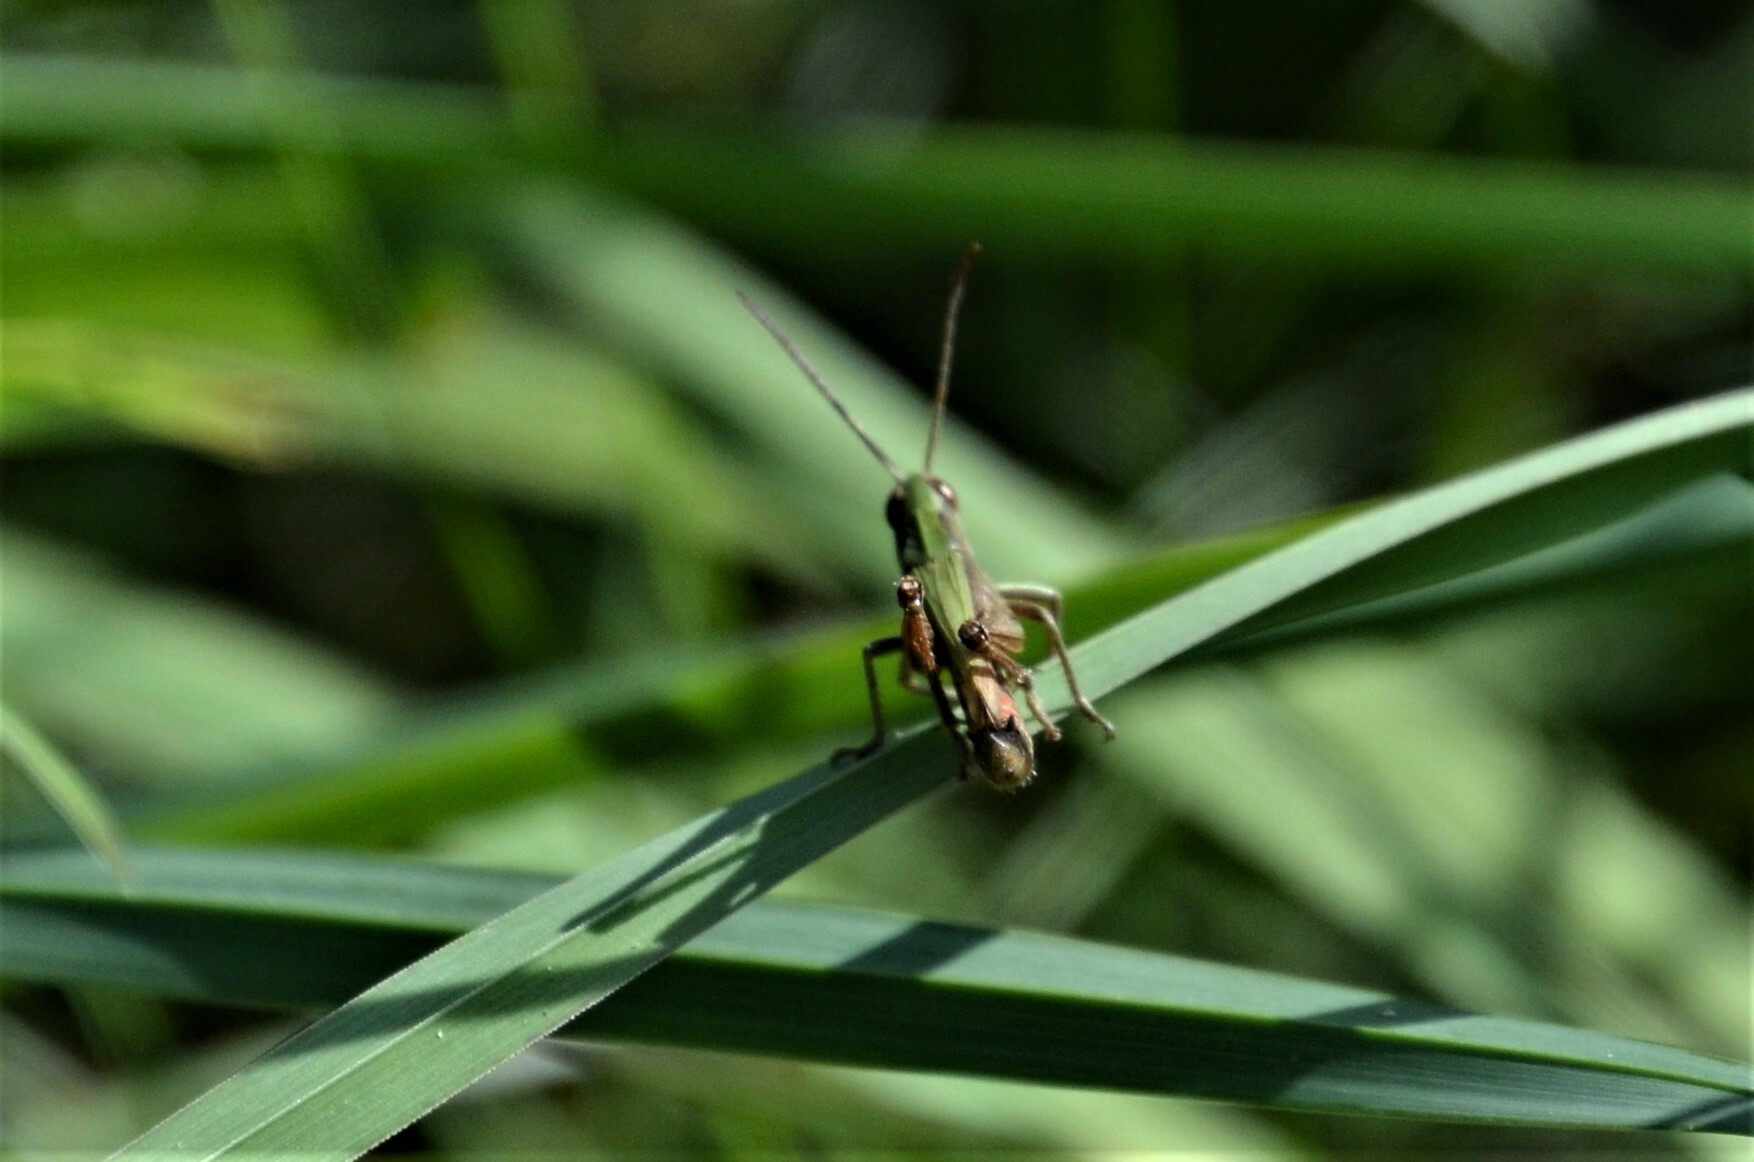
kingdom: Animalia
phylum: Arthropoda
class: Insecta
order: Orthoptera
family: Acrididae
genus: Chorthippus
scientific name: Chorthippus dorsatus
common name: Steppe grasshopper
